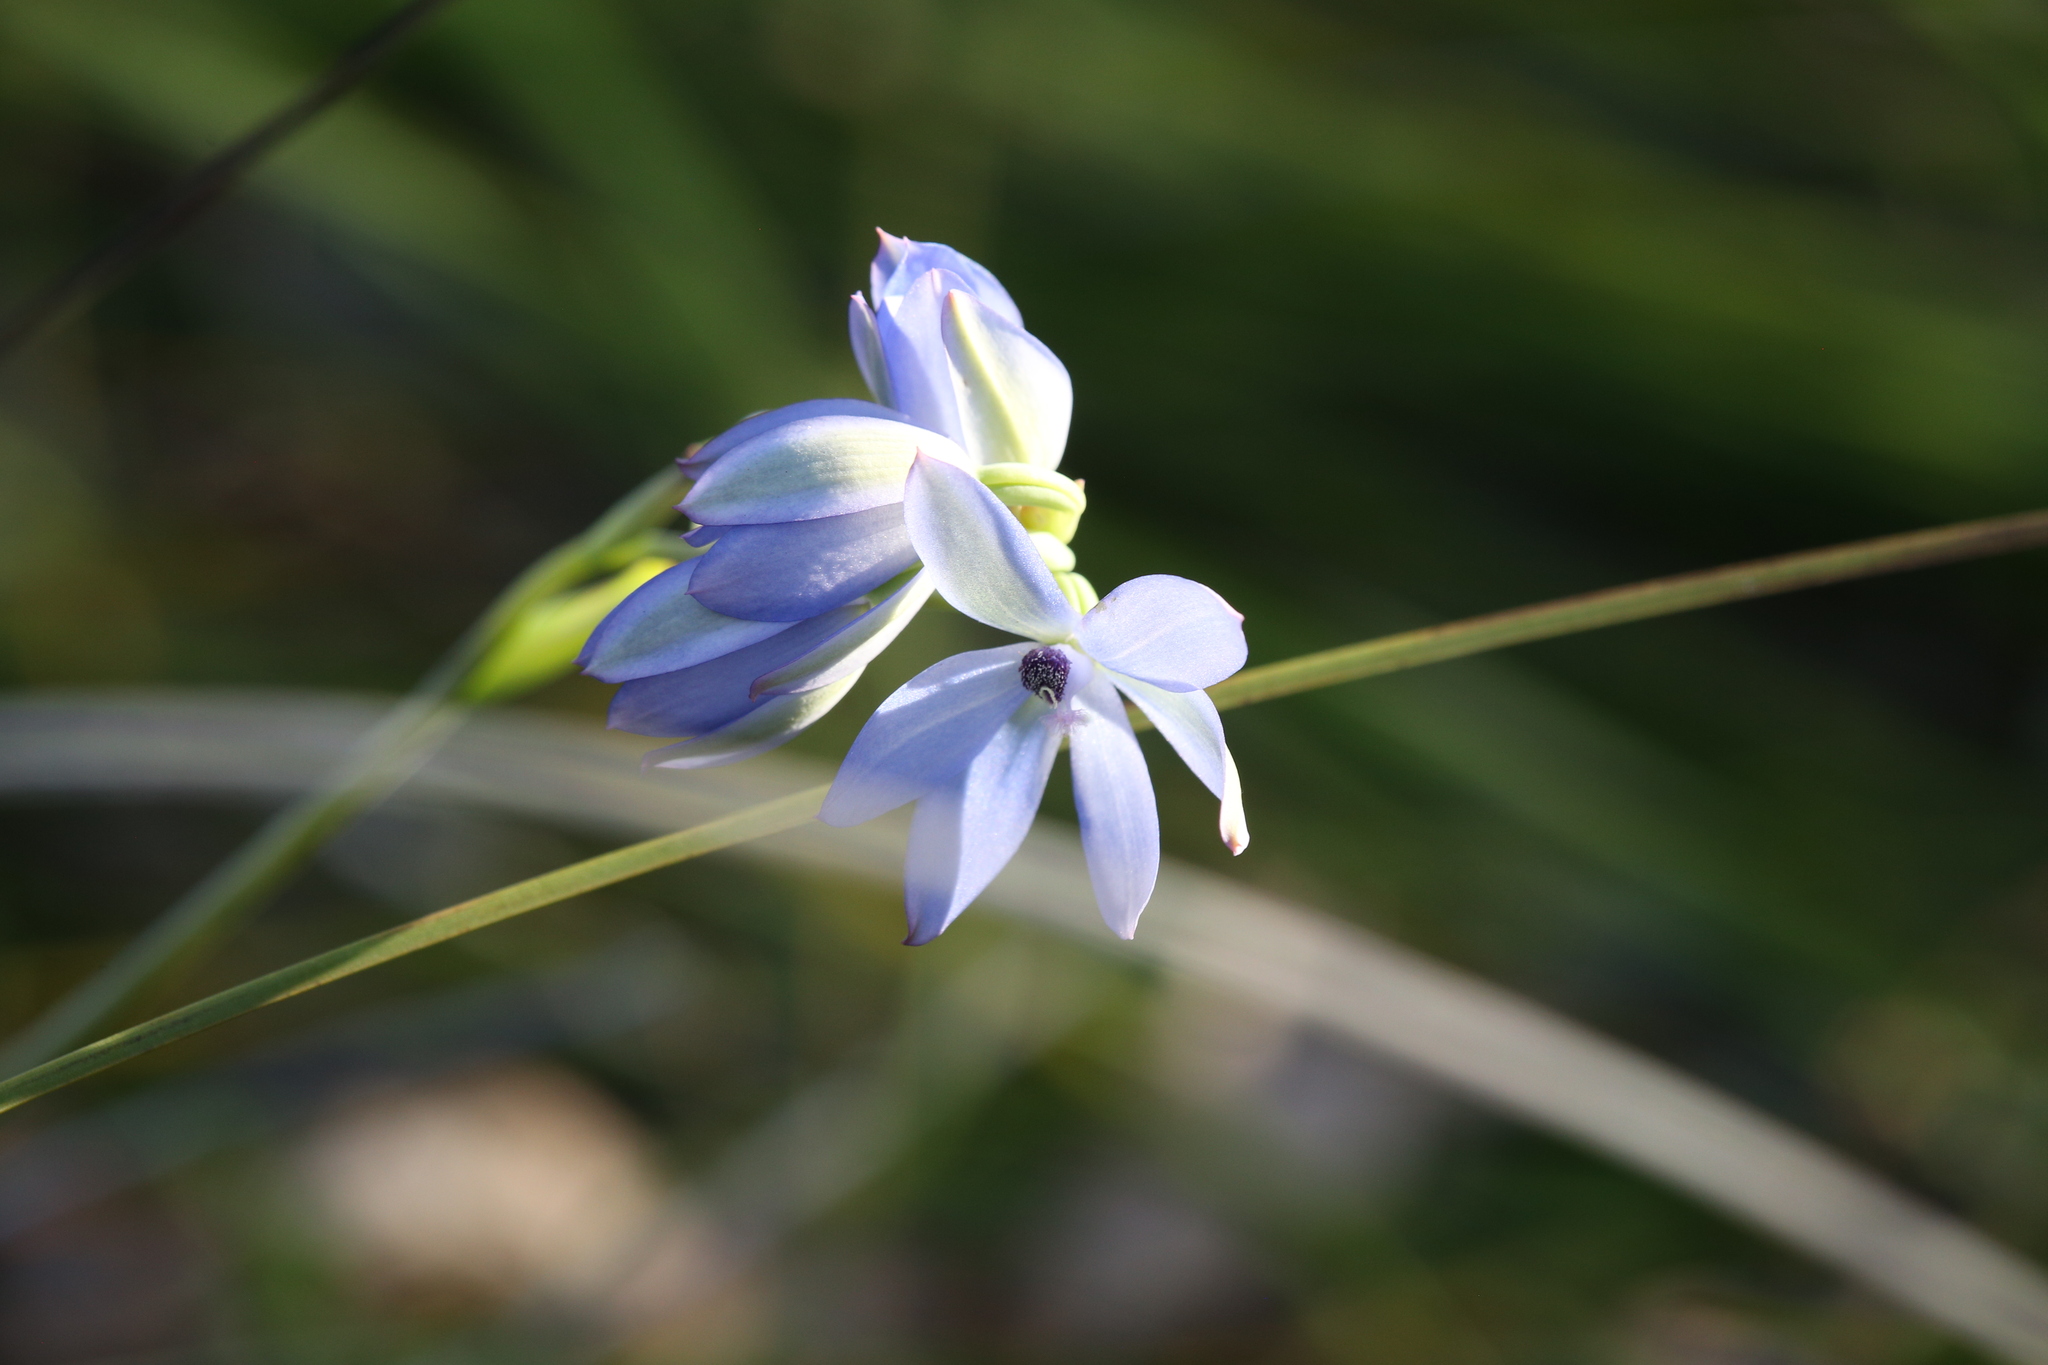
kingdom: Plantae
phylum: Tracheophyta
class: Liliopsida
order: Asparagales
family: Orchidaceae
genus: Thelymitra
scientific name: Thelymitra crinita
